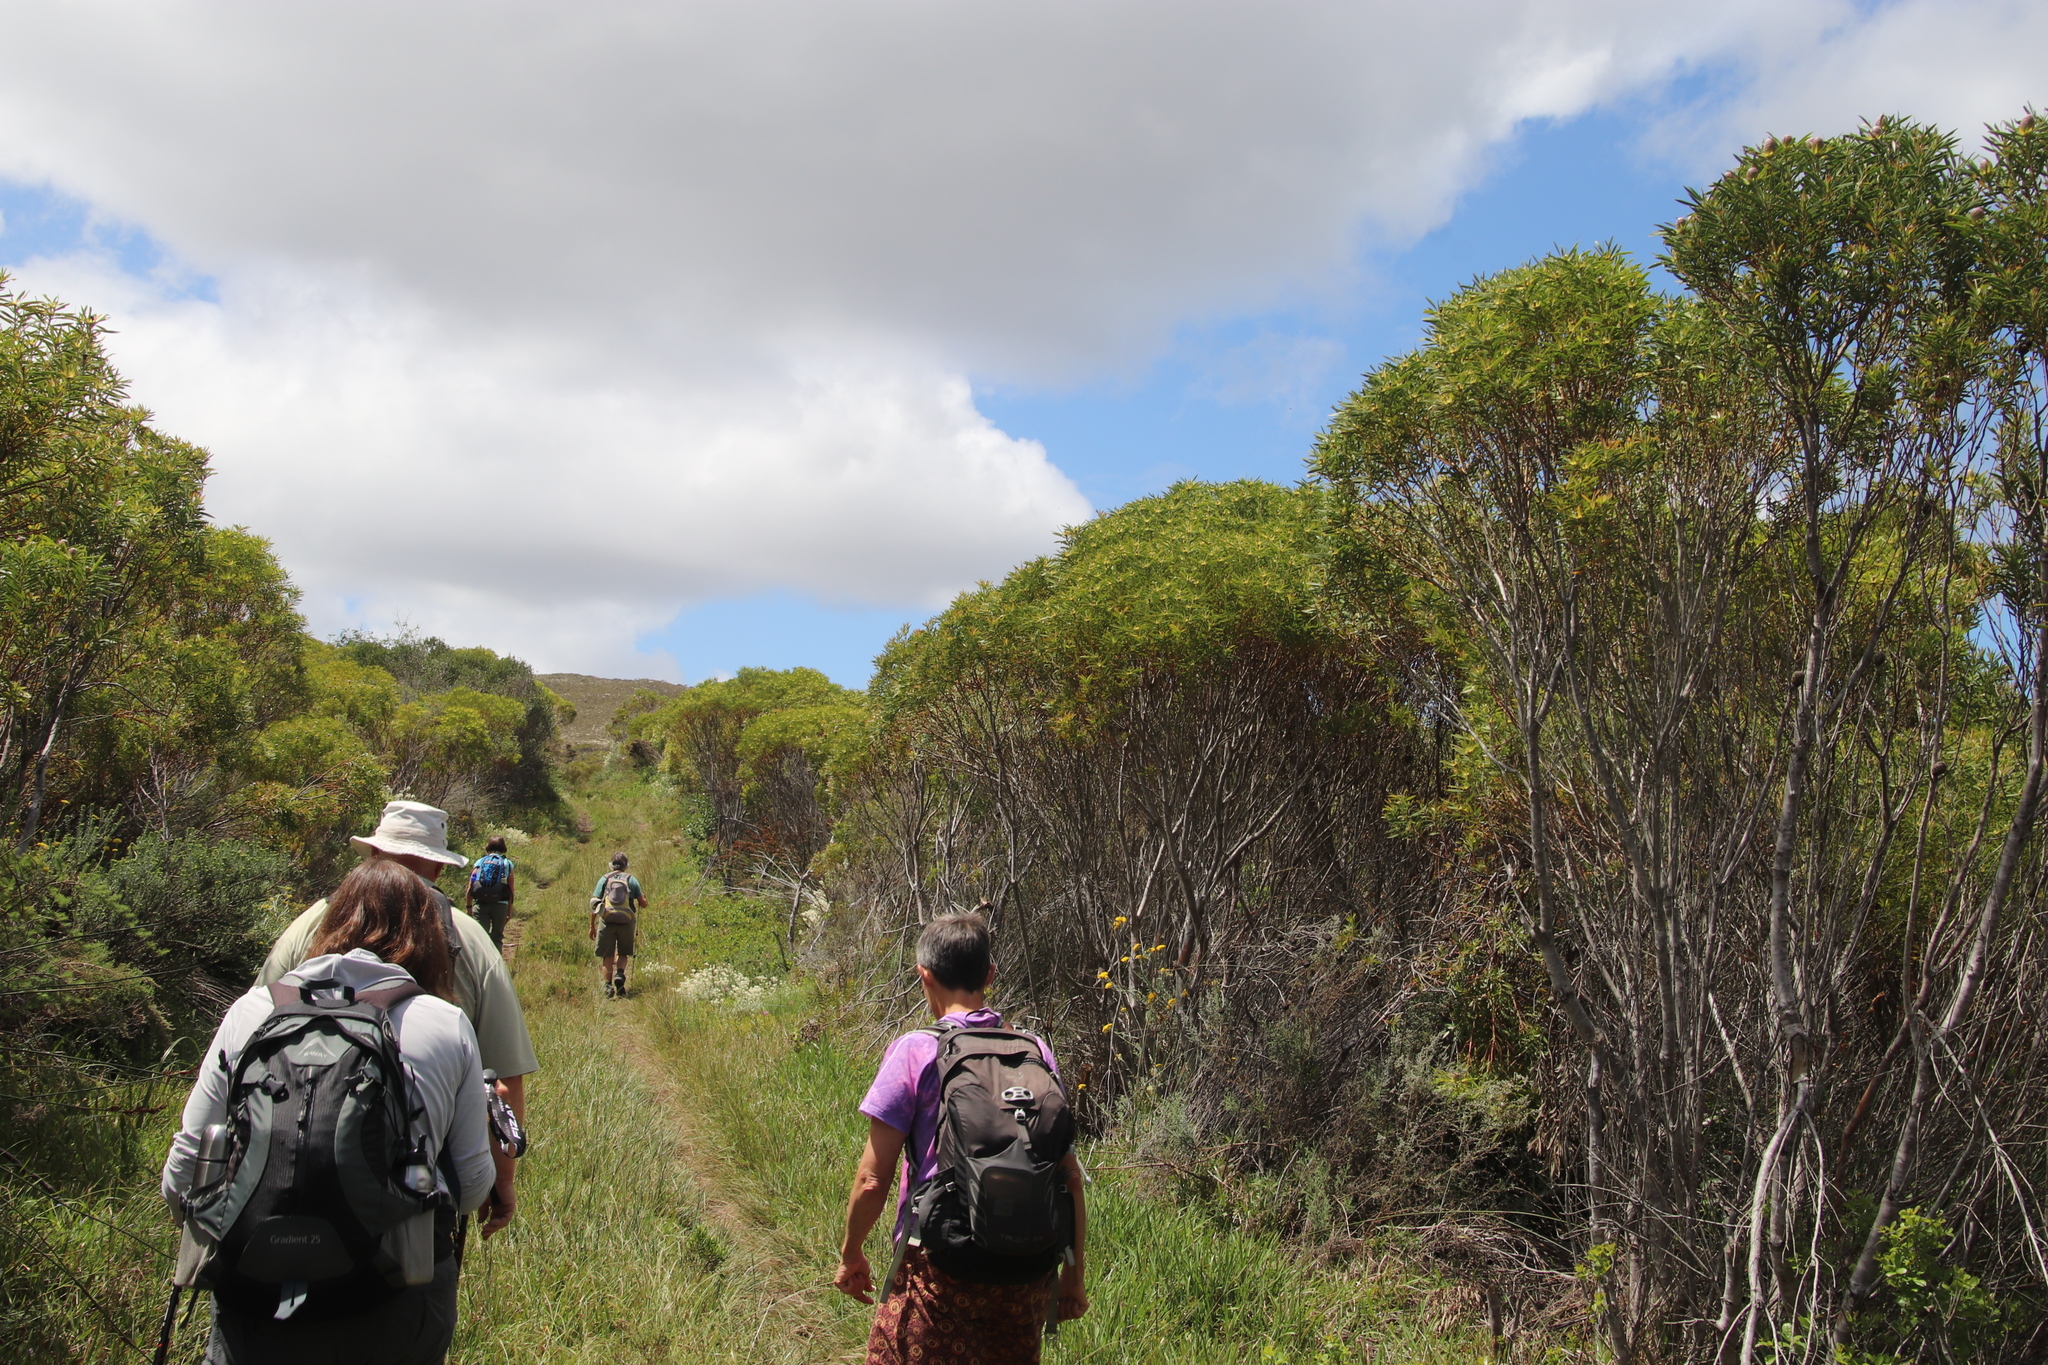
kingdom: Plantae
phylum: Tracheophyta
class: Magnoliopsida
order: Proteales
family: Proteaceae
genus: Leucadendron
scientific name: Leucadendron coniferum
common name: Dune conebush
